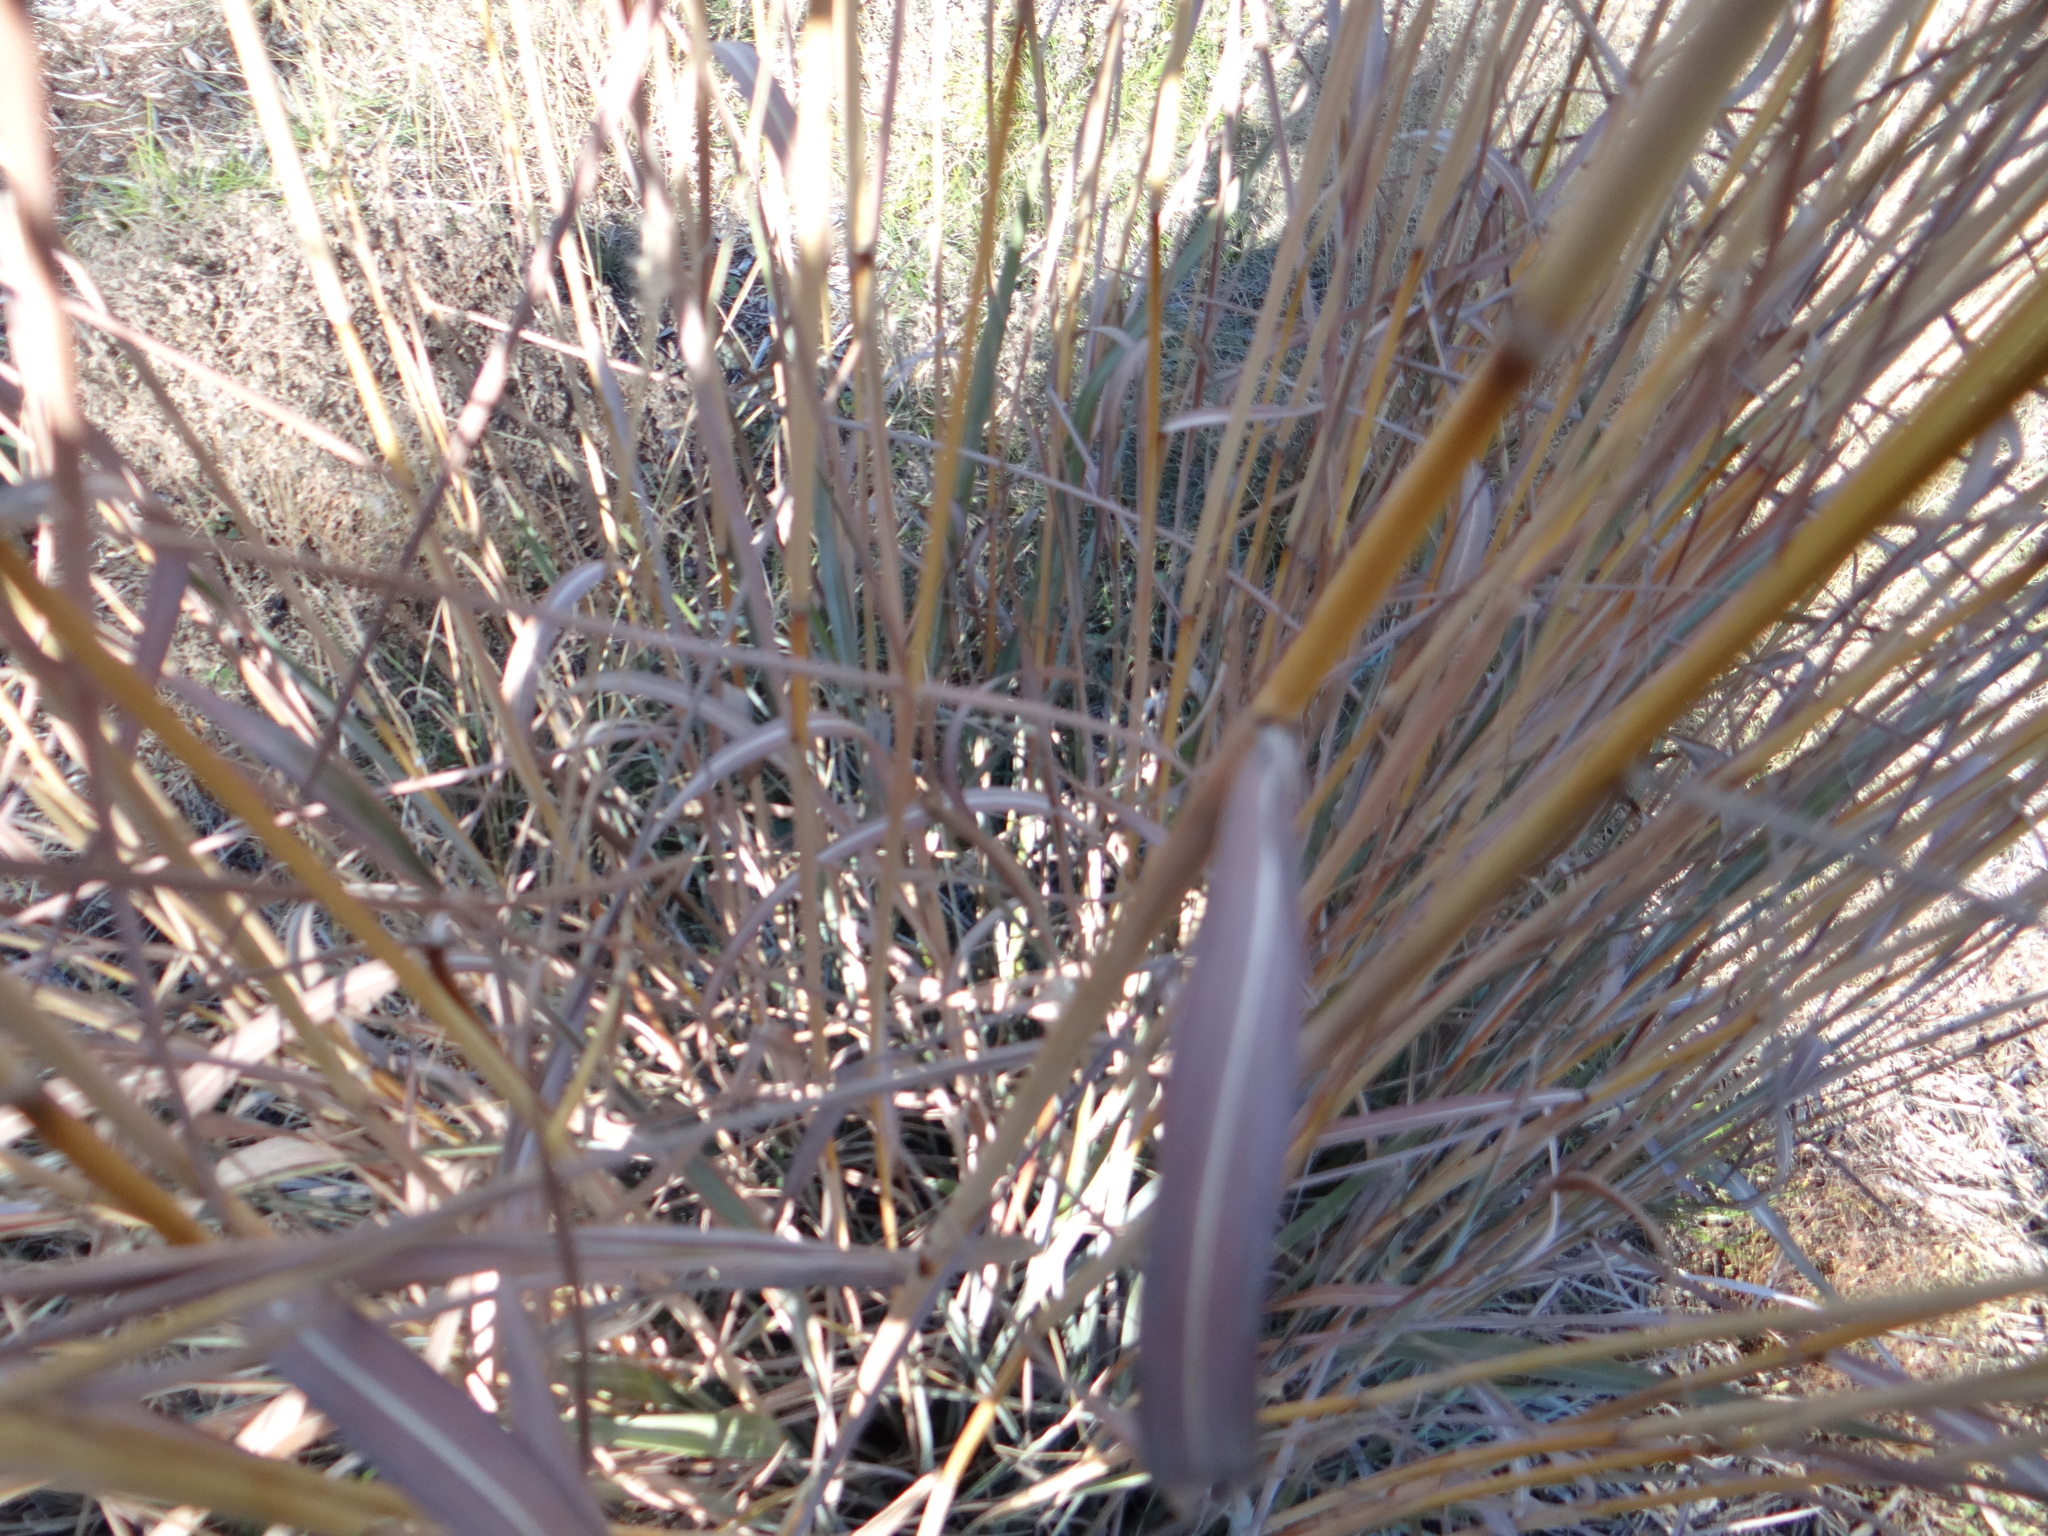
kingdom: Plantae
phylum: Tracheophyta
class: Liliopsida
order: Poales
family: Poaceae
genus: Sorghastrum
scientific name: Sorghastrum nutans
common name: Indian grass
